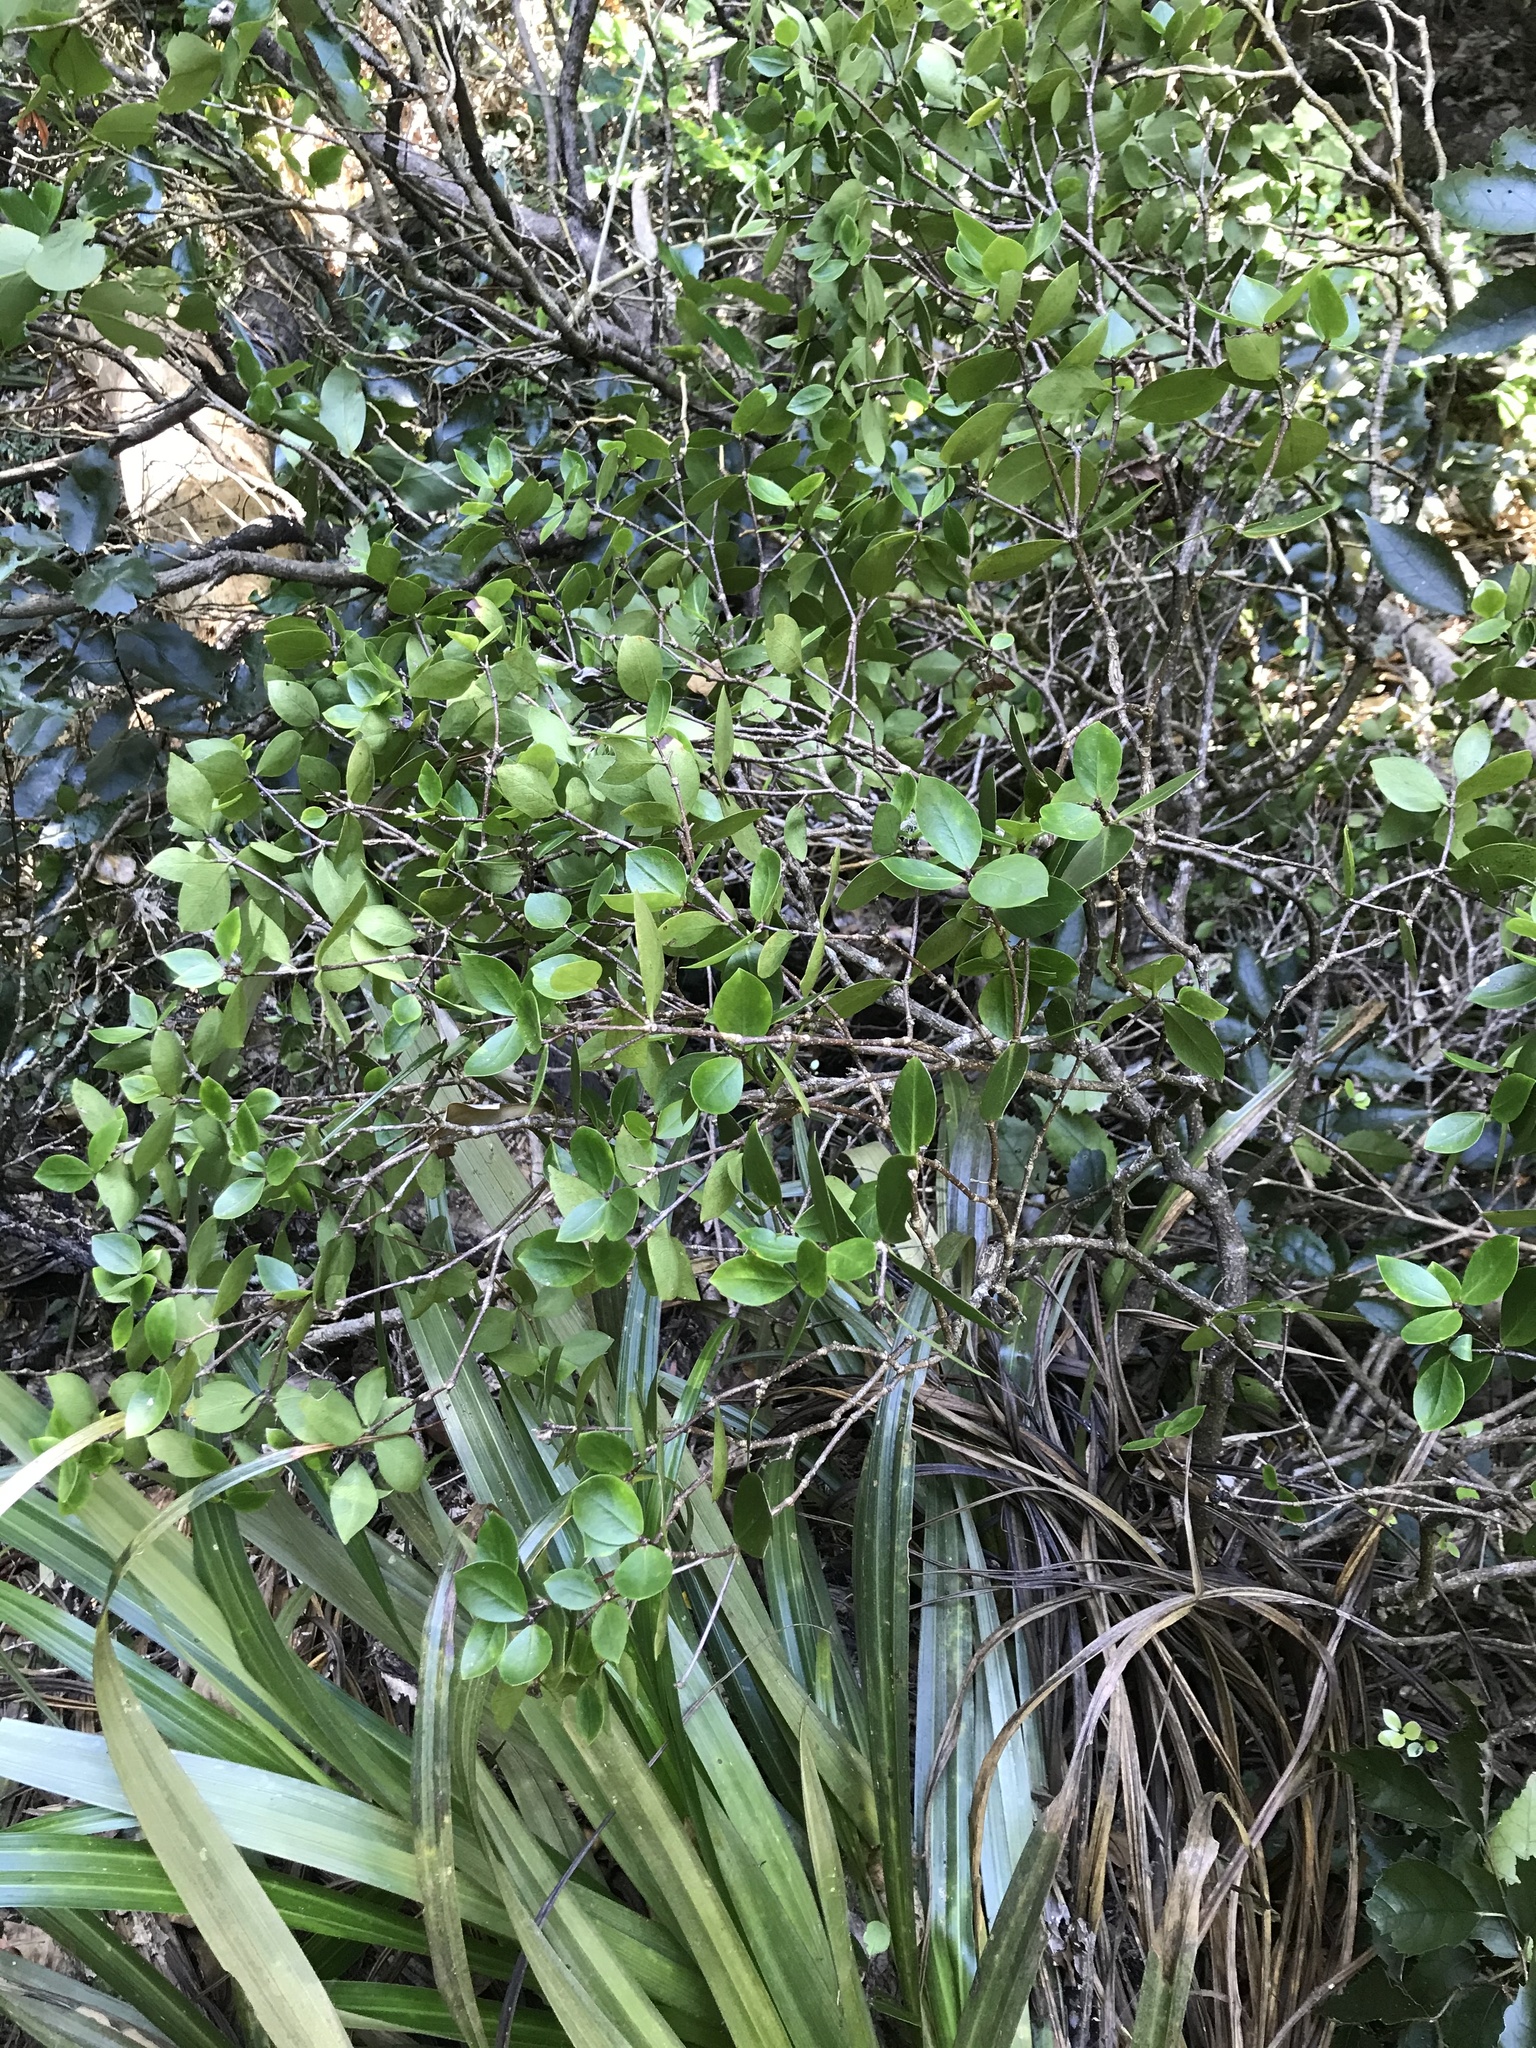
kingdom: Plantae
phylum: Tracheophyta
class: Magnoliopsida
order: Apiales
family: Pittosporaceae
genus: Pittosporum
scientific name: Pittosporum cornifolium
